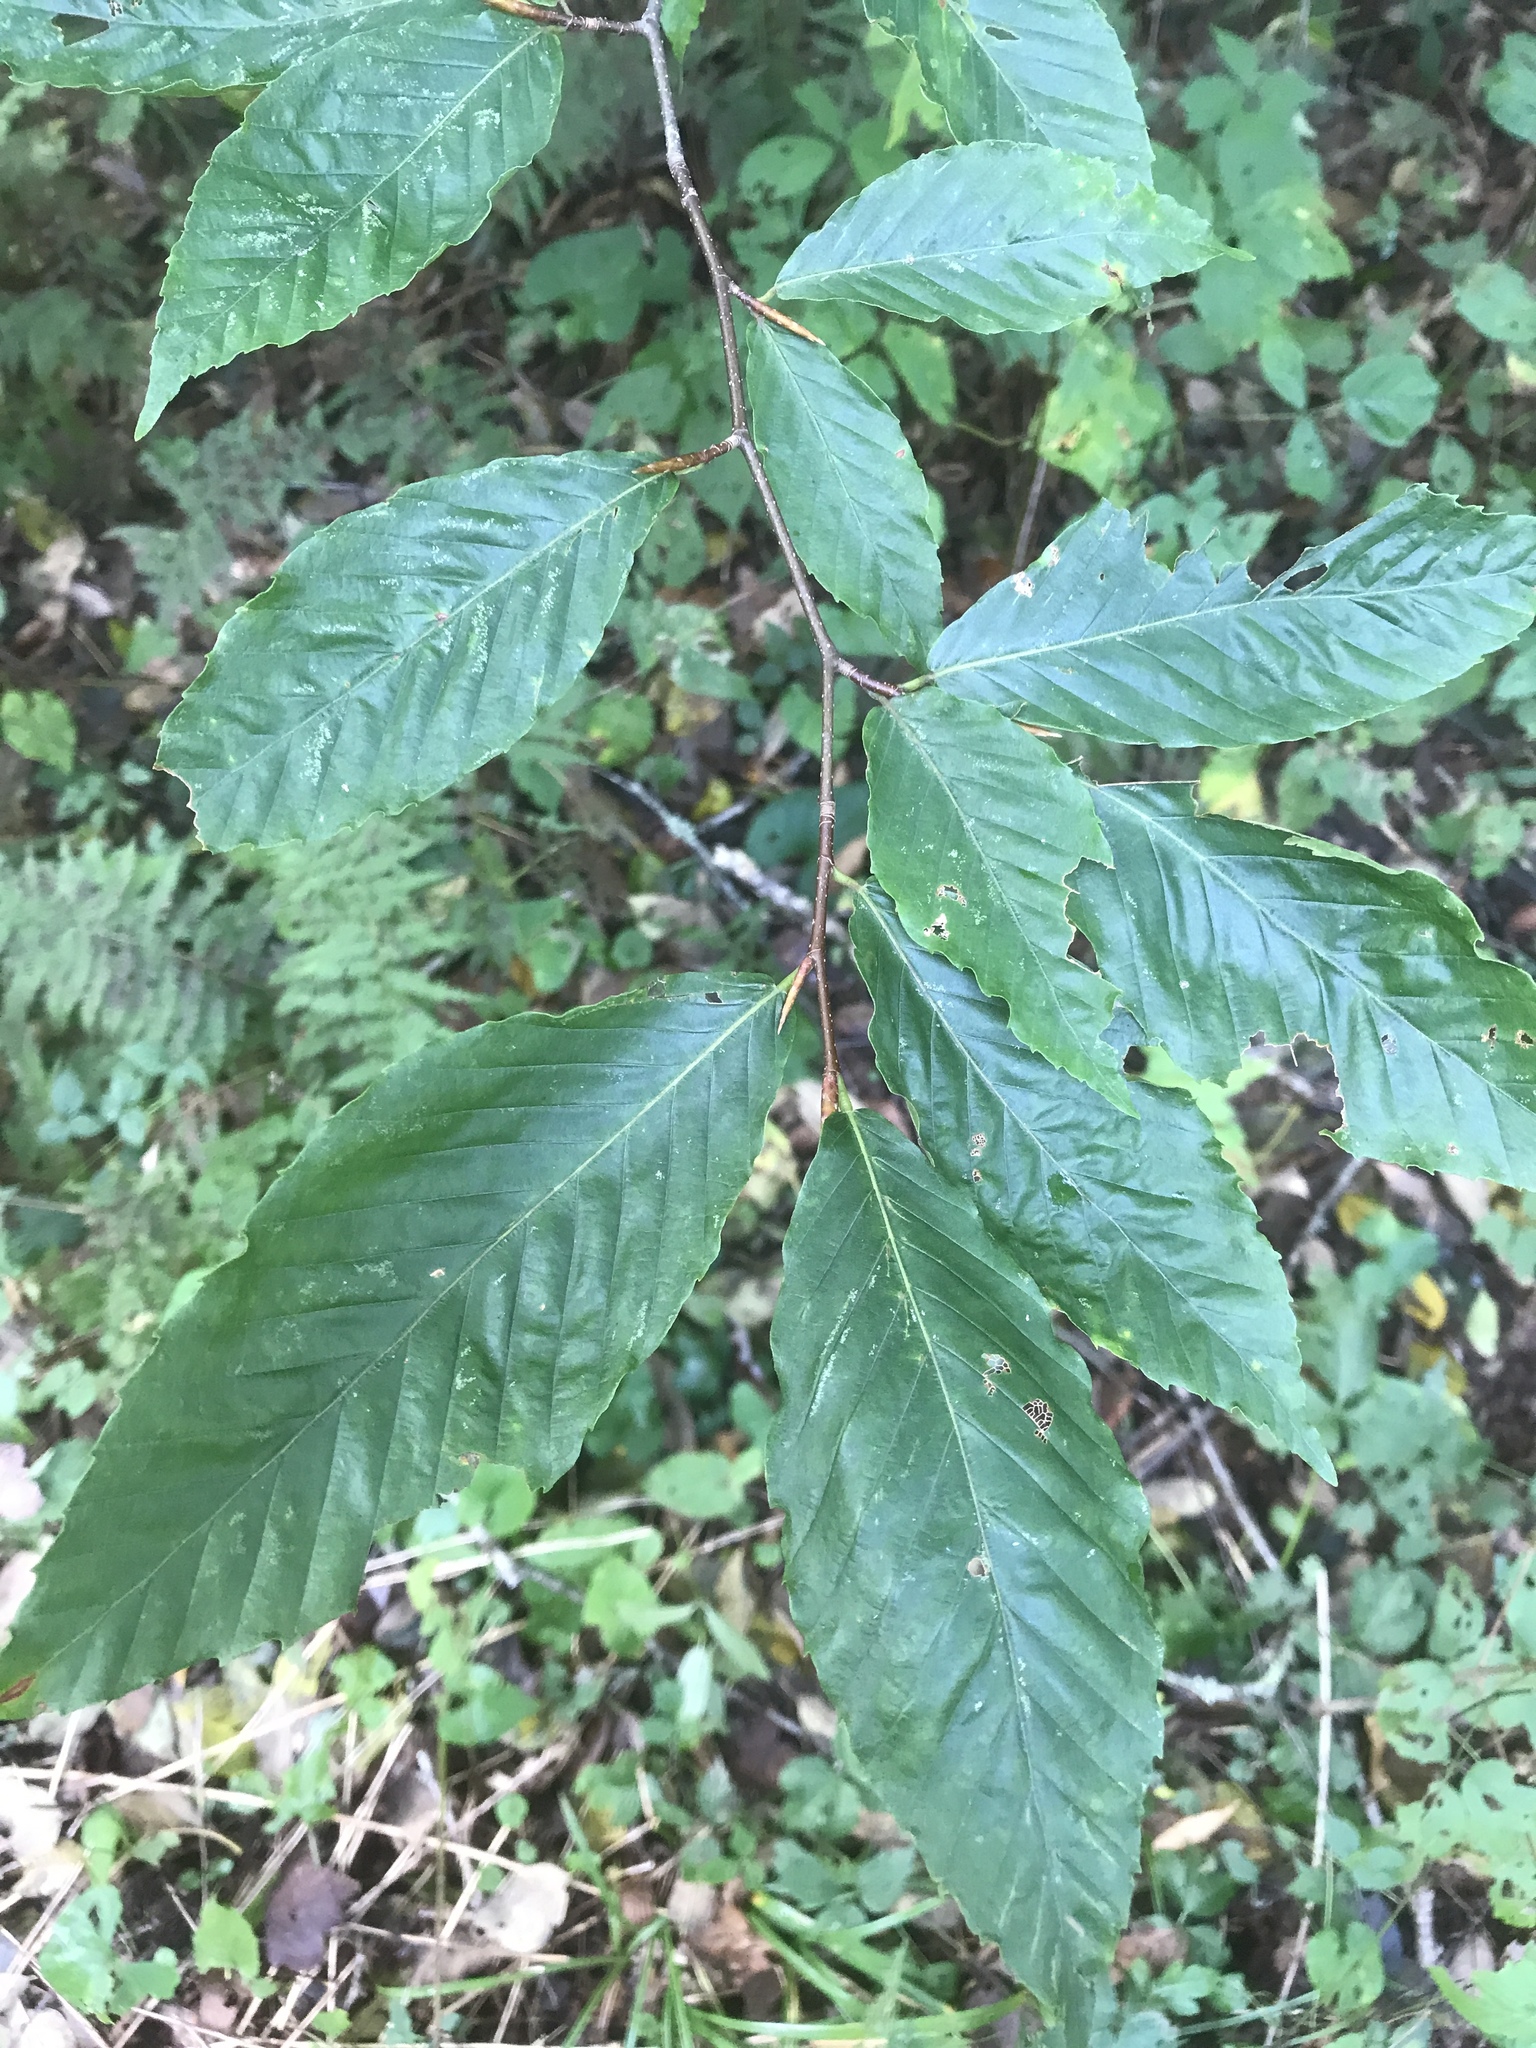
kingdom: Plantae
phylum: Tracheophyta
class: Magnoliopsida
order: Fagales
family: Fagaceae
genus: Fagus
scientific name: Fagus grandifolia
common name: American beech
